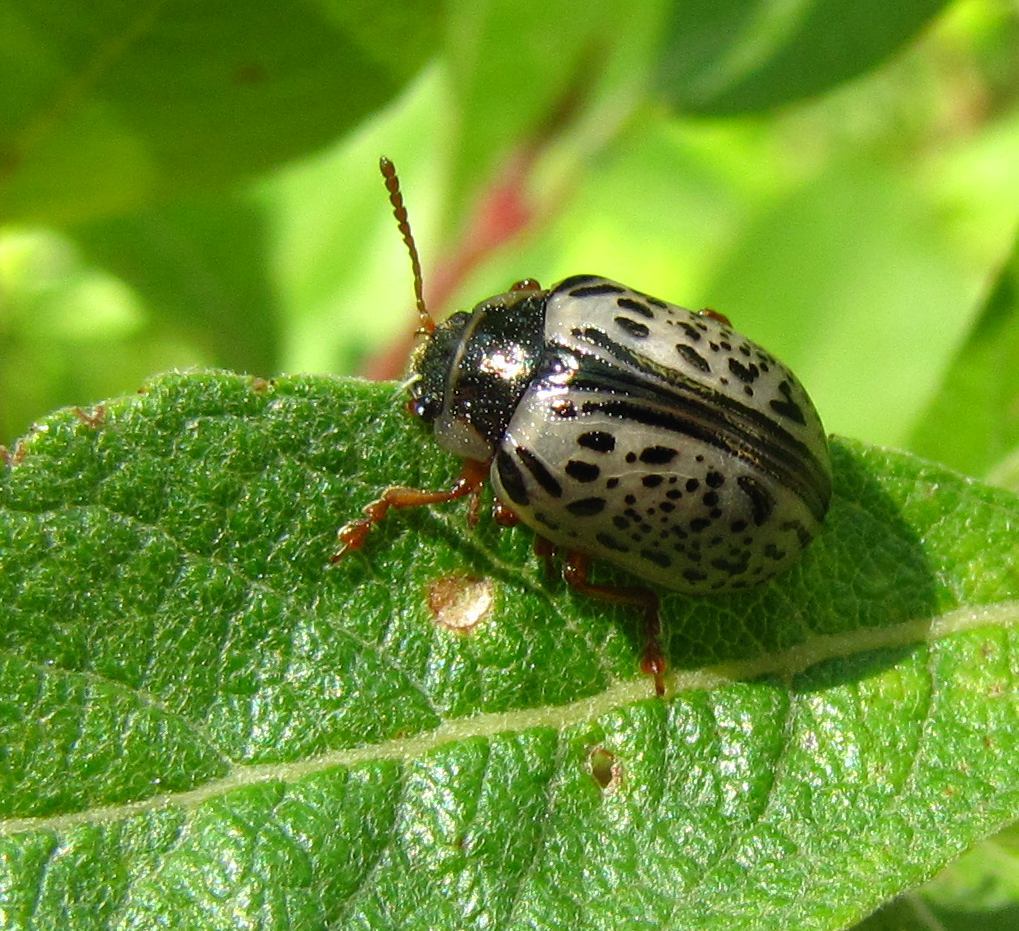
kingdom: Animalia
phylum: Arthropoda
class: Insecta
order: Coleoptera
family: Chrysomelidae
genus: Calligrapha
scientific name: Calligrapha multipunctata
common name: Common willow calligrapher beetle
